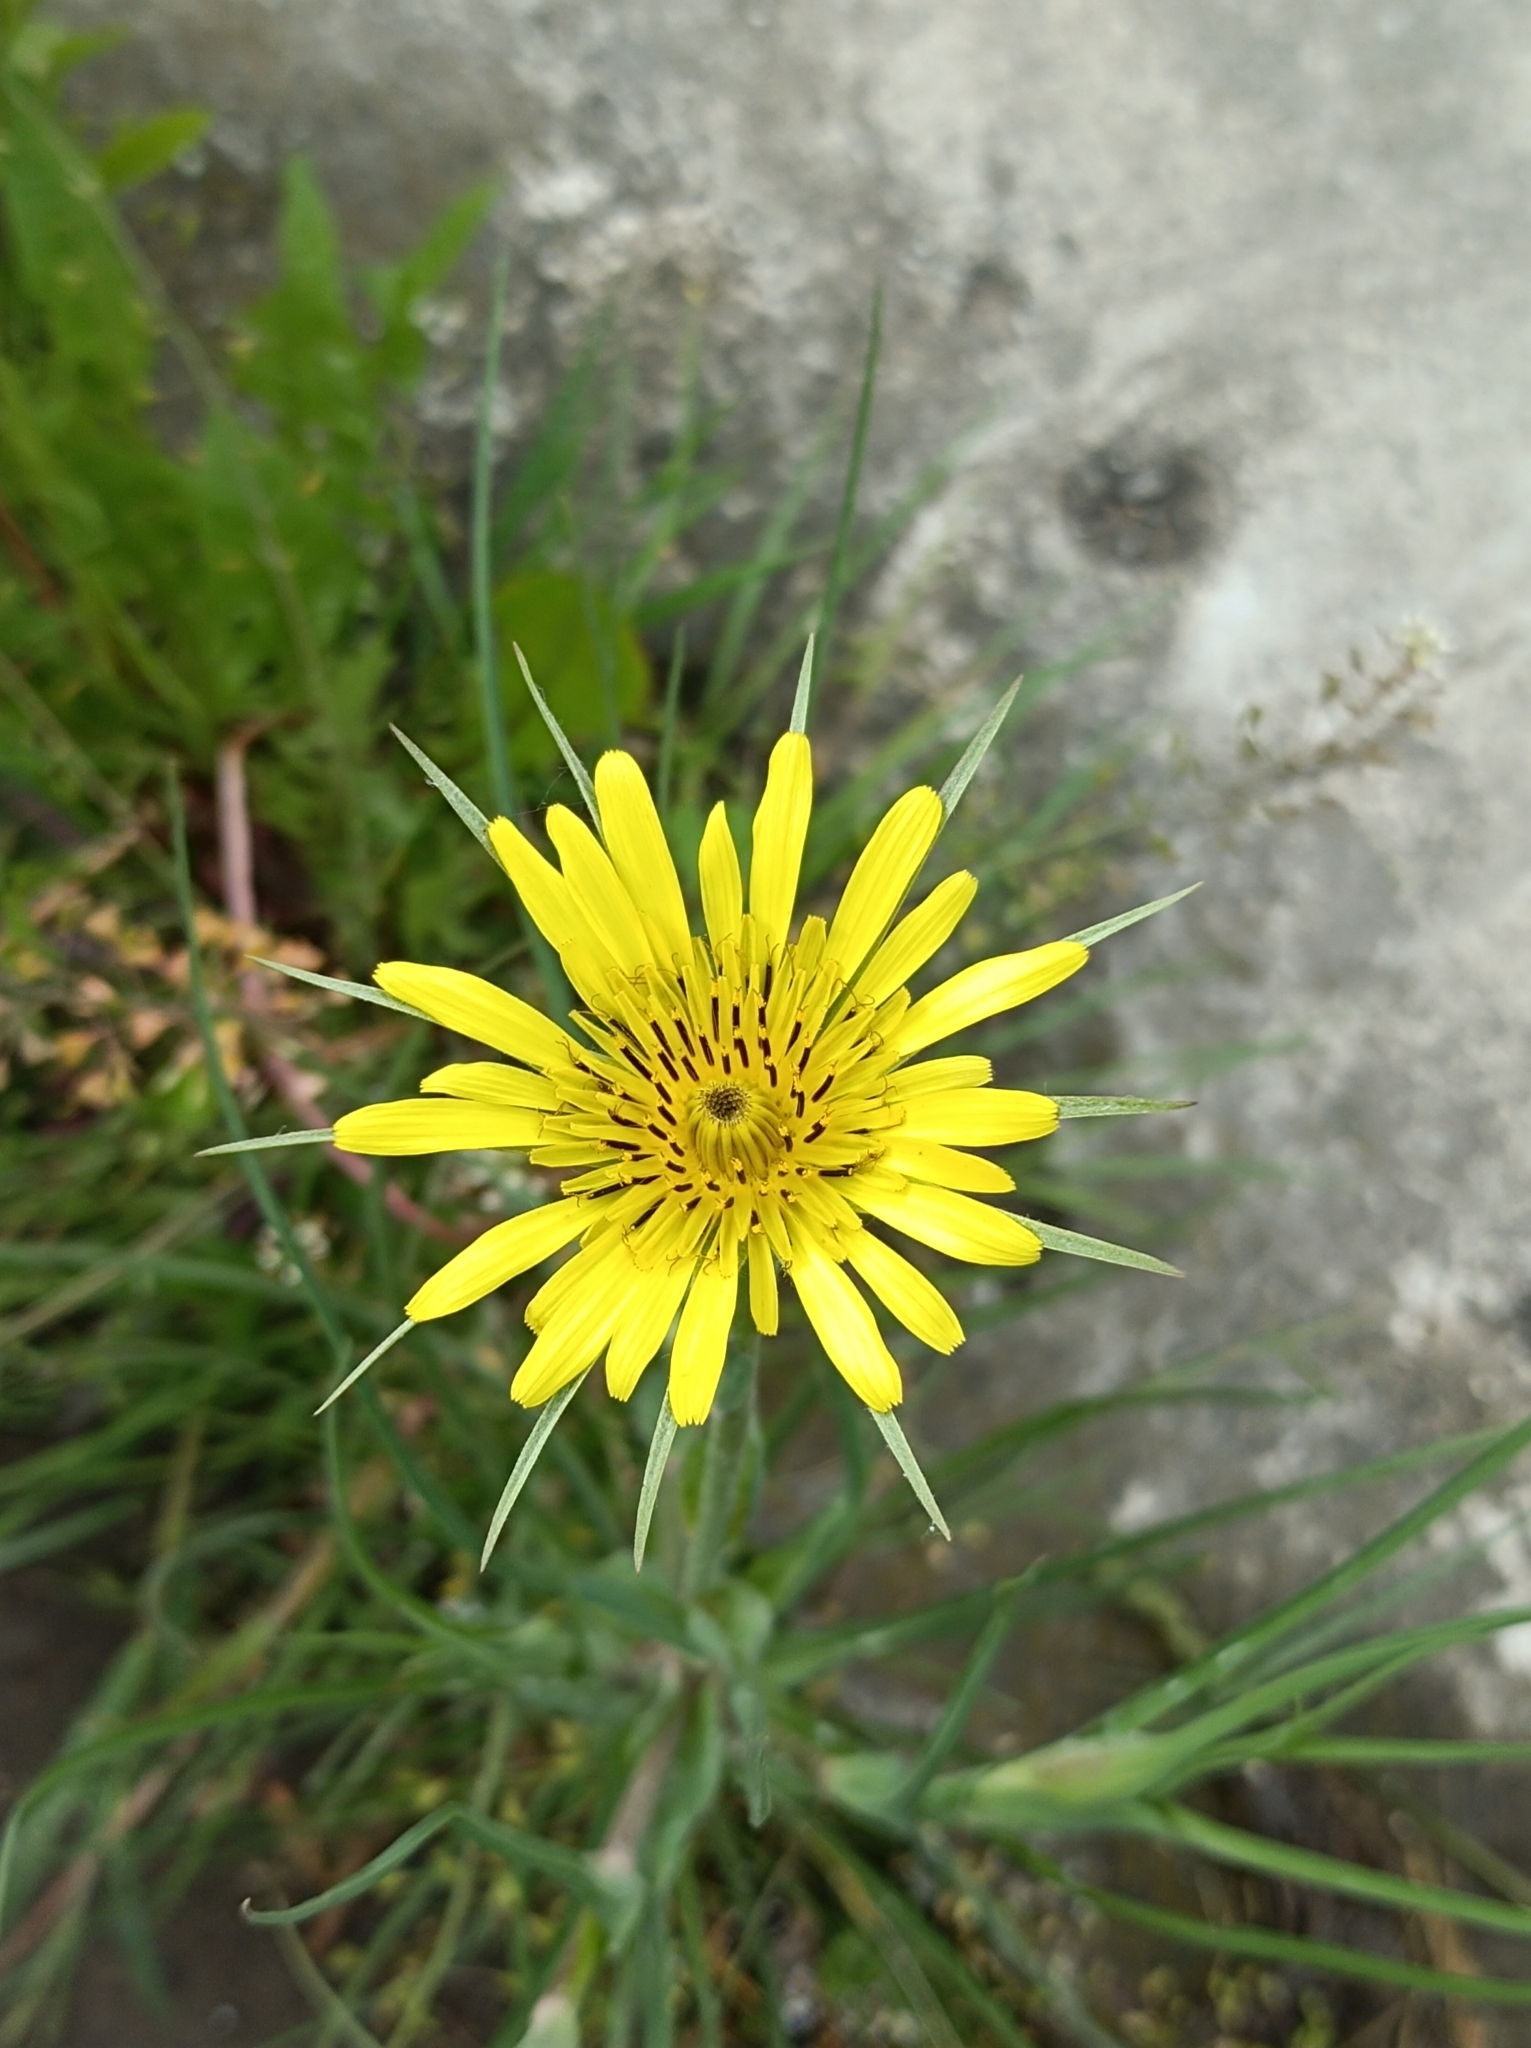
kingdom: Plantae
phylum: Tracheophyta
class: Magnoliopsida
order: Asterales
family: Asteraceae
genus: Tragopogon
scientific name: Tragopogon dubius
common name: Yellow salsify
